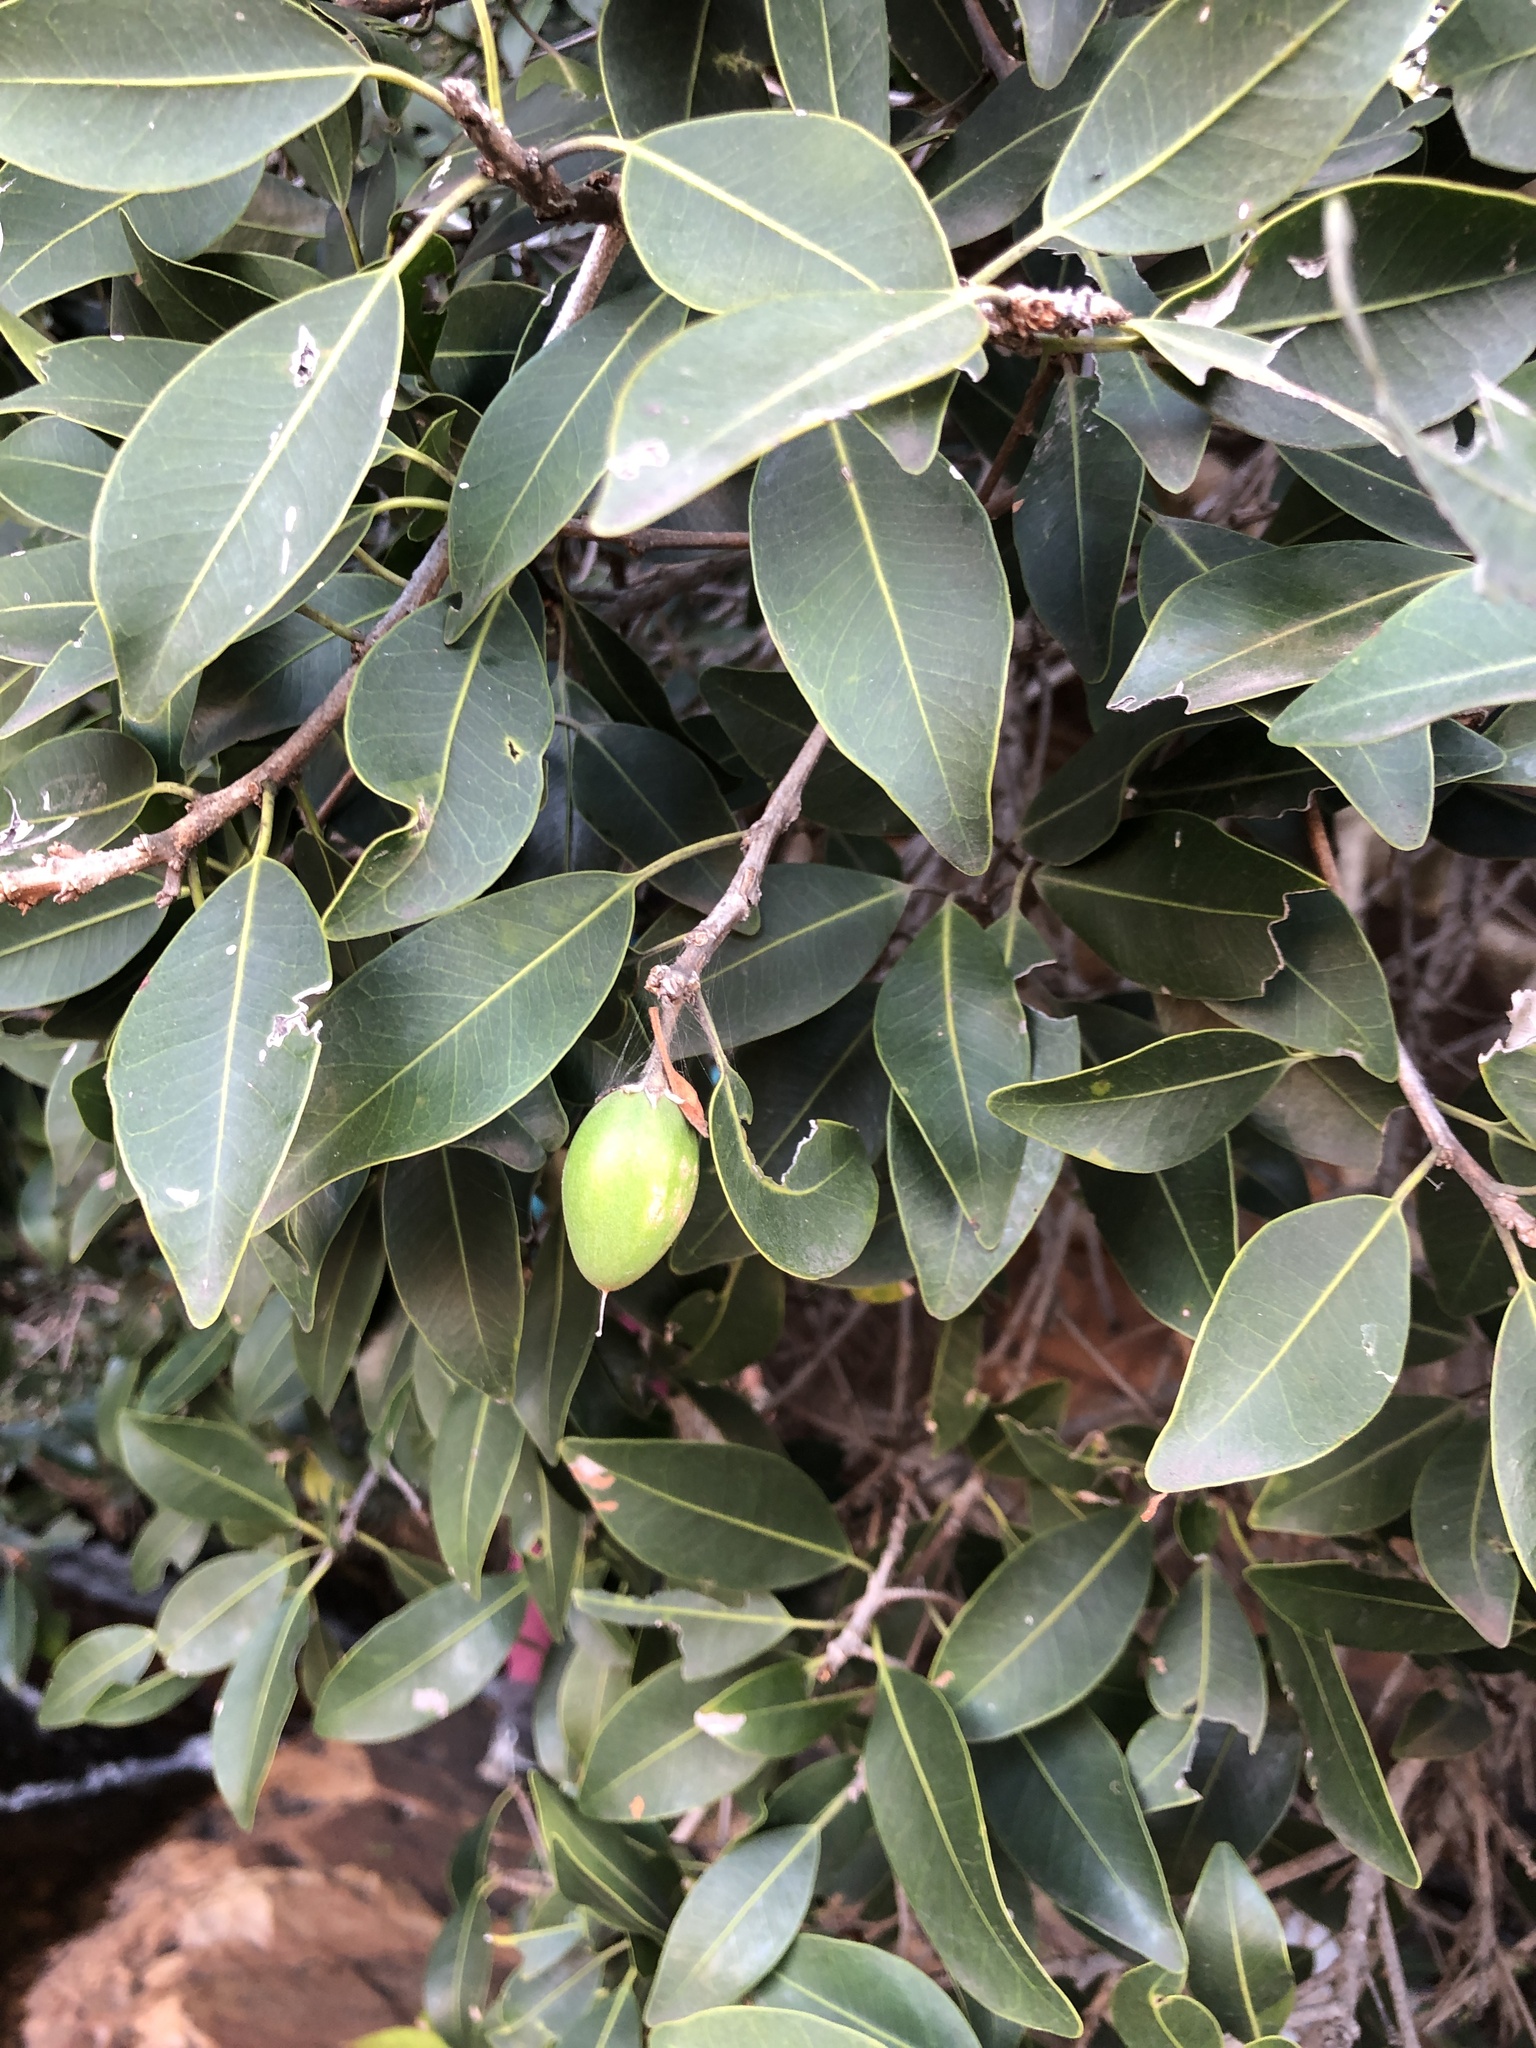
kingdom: Plantae
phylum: Tracheophyta
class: Magnoliopsida
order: Ericales
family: Sapotaceae
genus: Mimusops
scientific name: Mimusops zeyheri
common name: Transvaal red milkwood
